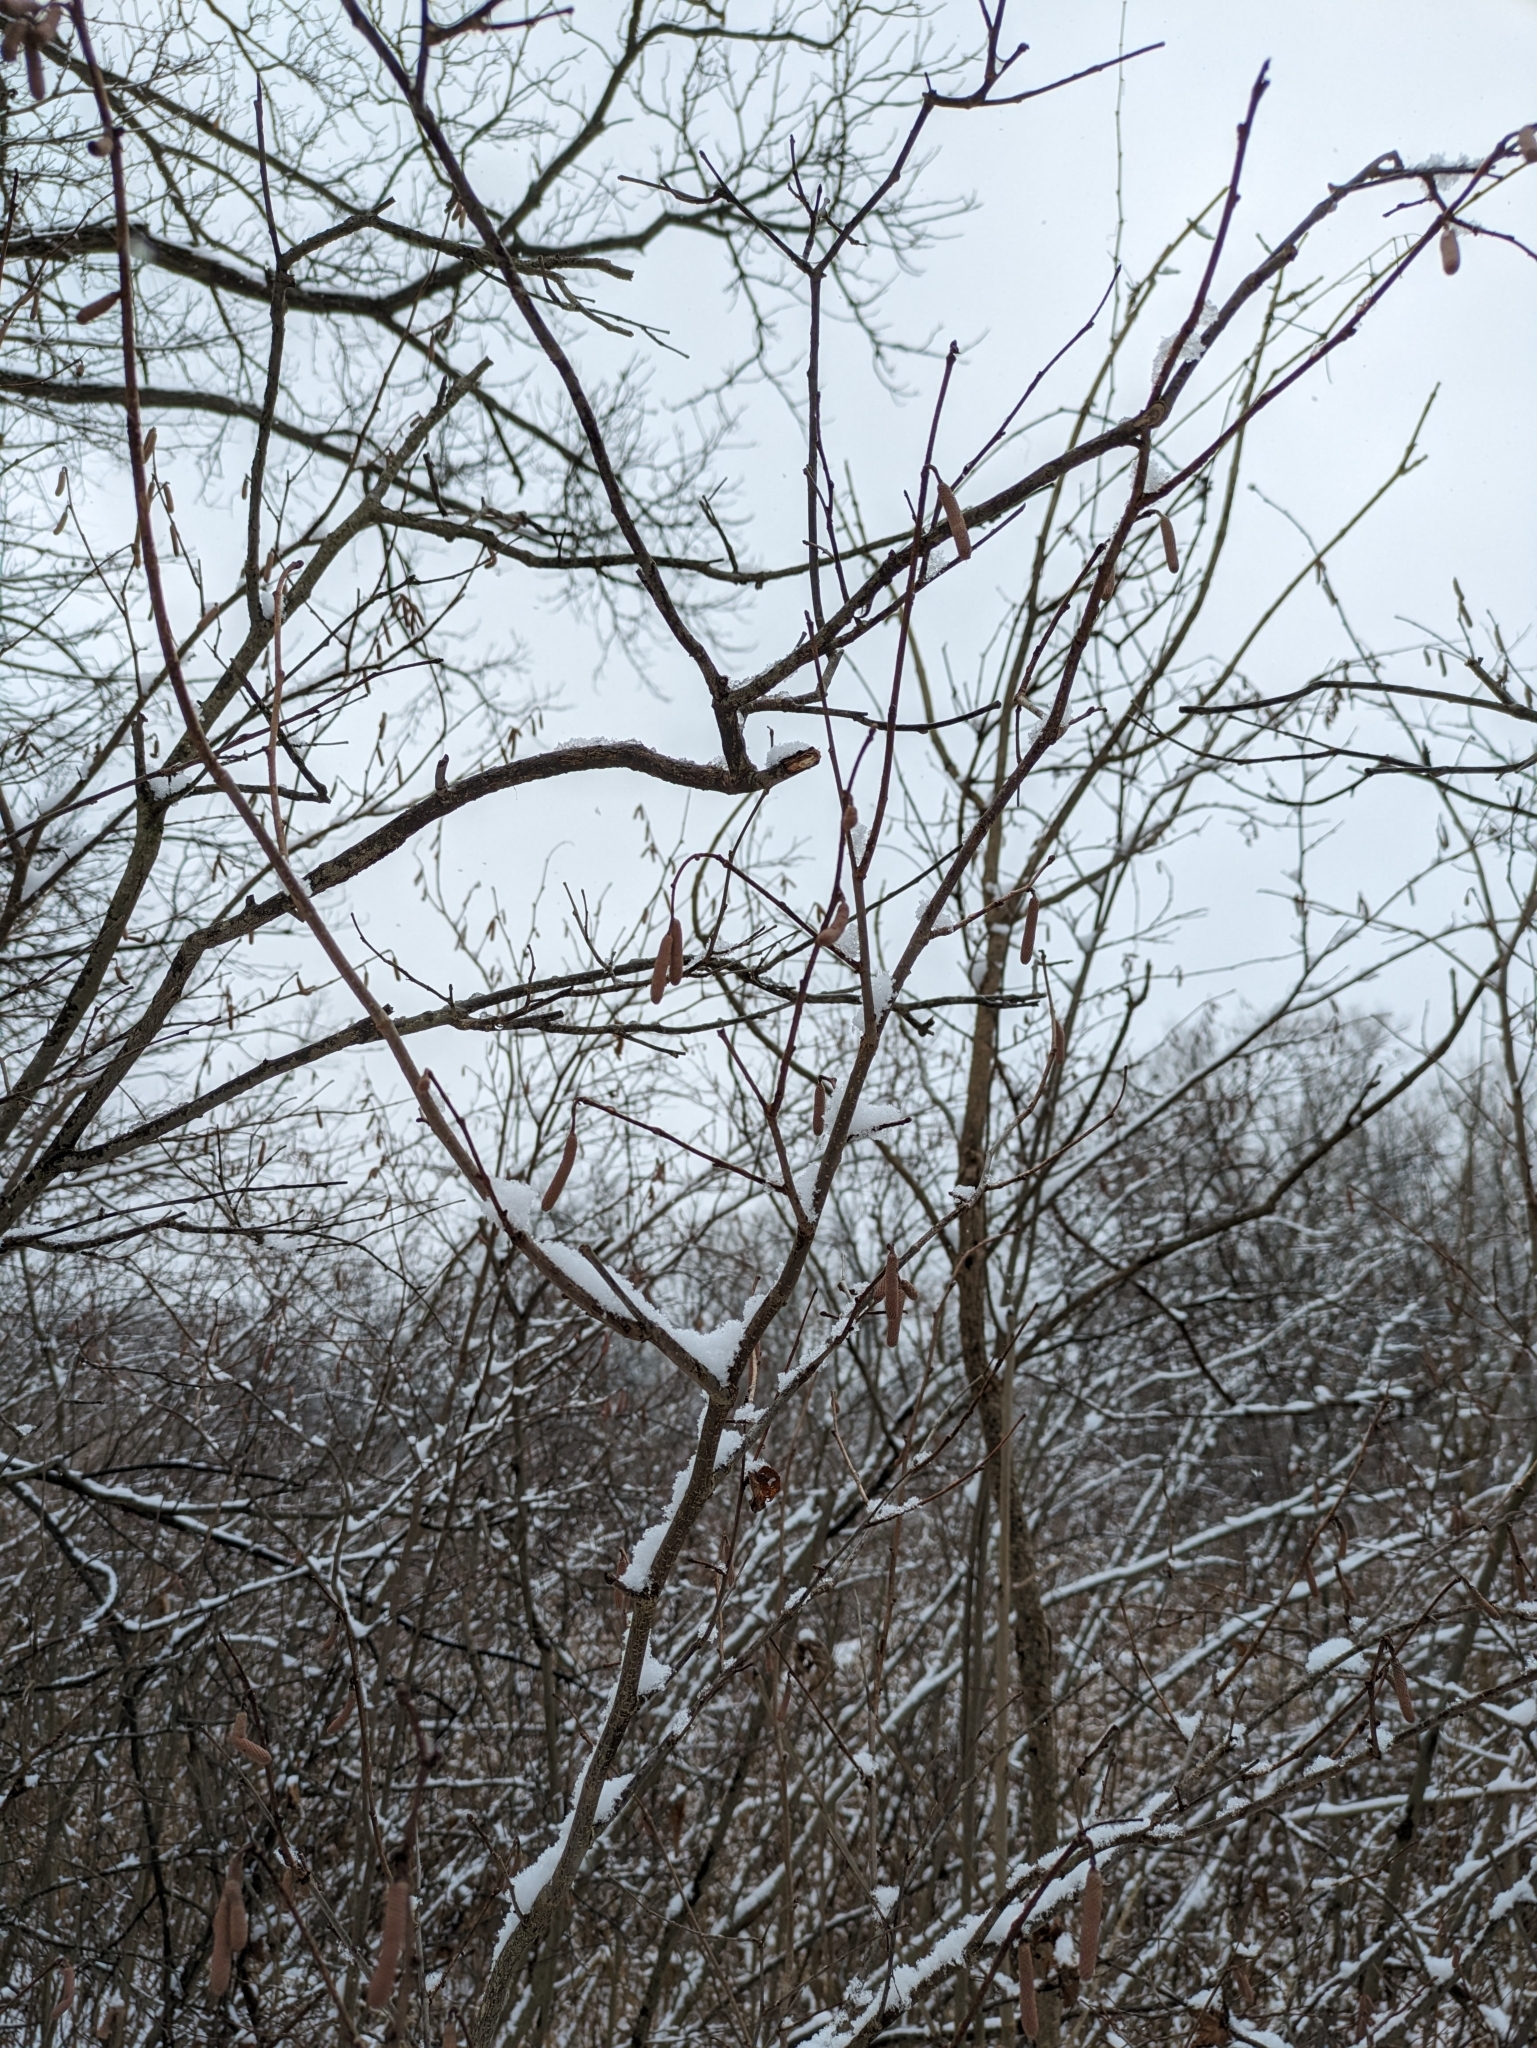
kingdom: Plantae
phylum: Tracheophyta
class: Magnoliopsida
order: Fagales
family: Betulaceae
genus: Corylus
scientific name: Corylus americana
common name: American hazel
